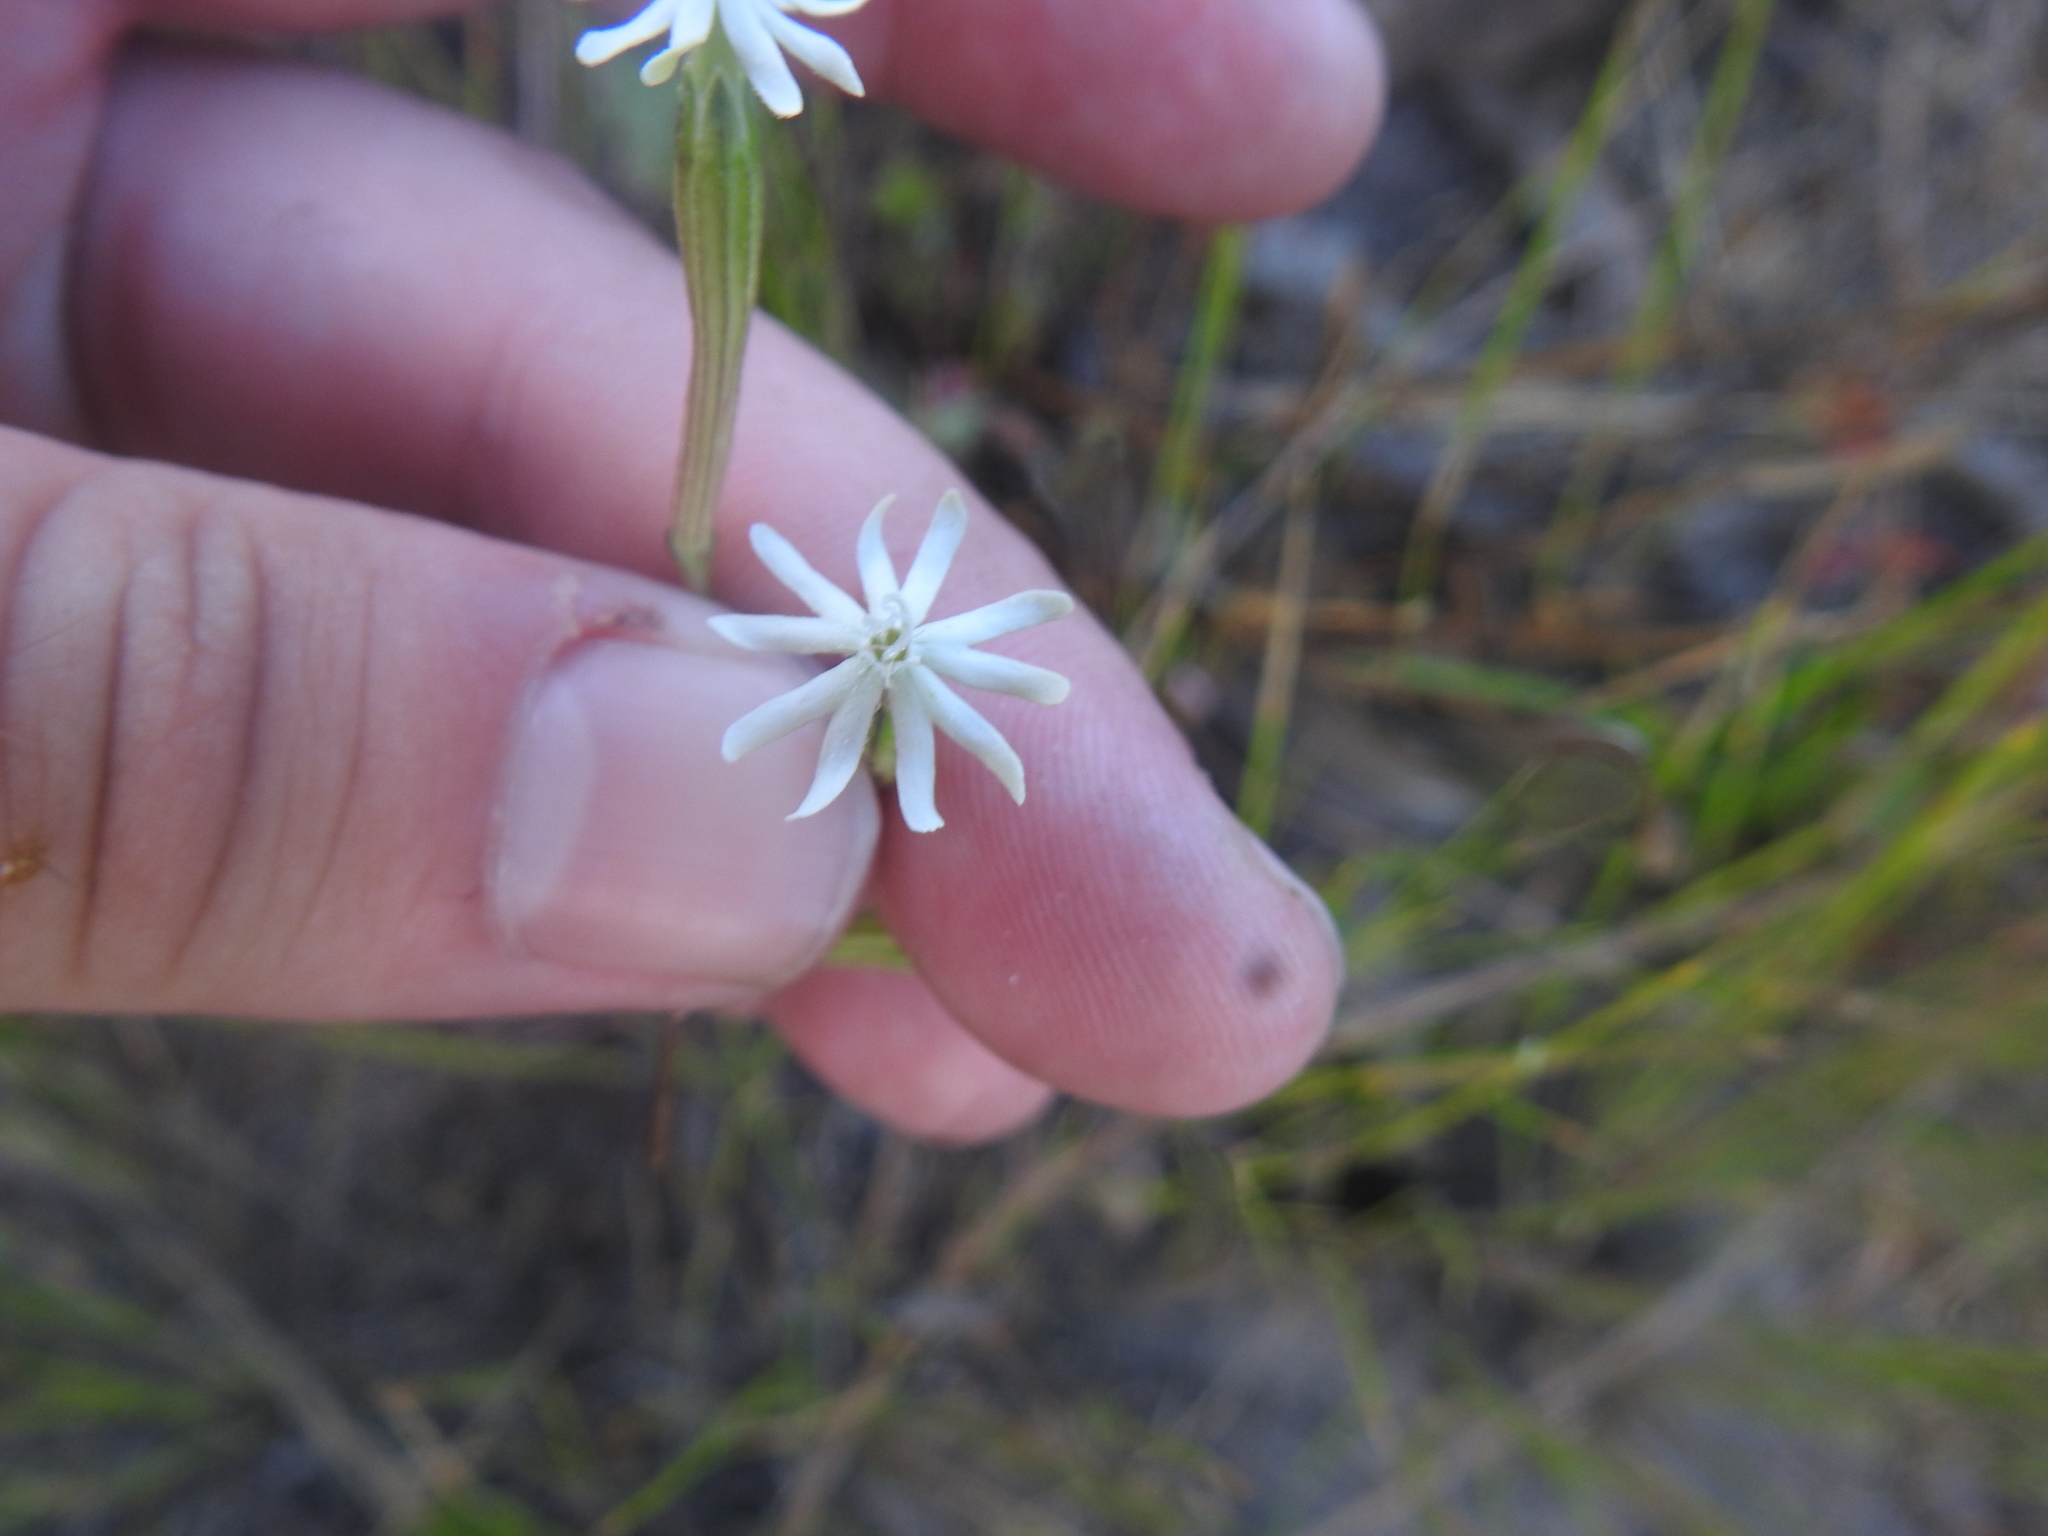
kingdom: Plantae
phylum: Tracheophyta
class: Magnoliopsida
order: Caryophyllales
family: Caryophyllaceae
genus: Silene
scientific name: Silene burchellii
